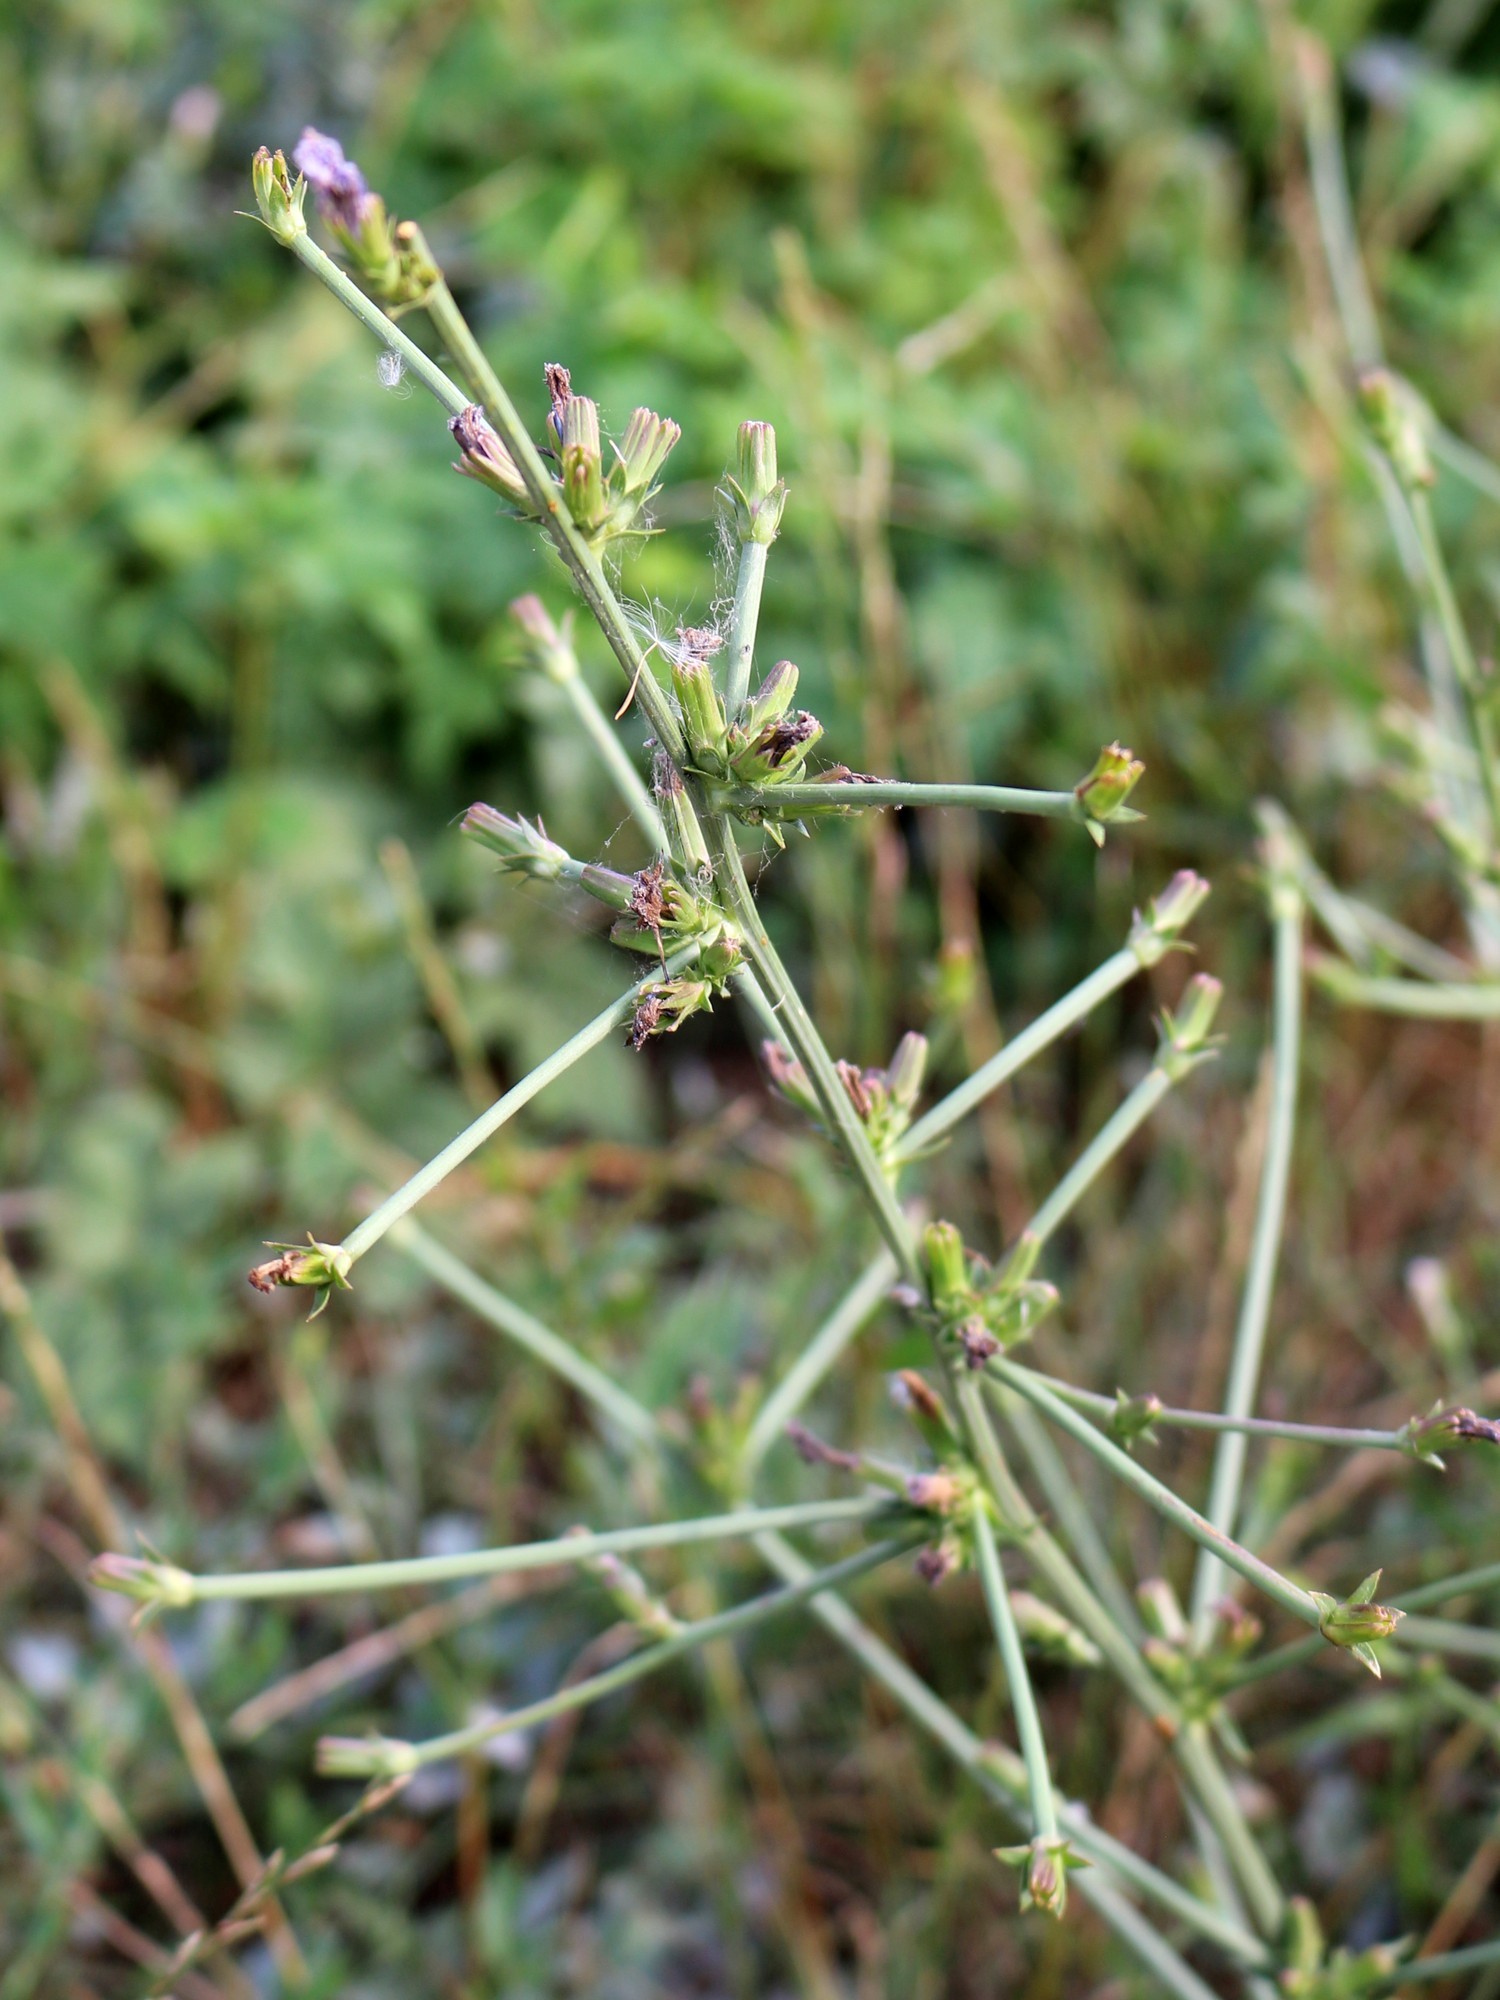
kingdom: Plantae
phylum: Tracheophyta
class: Magnoliopsida
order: Asterales
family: Asteraceae
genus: Cichorium
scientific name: Cichorium intybus
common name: Chicory
